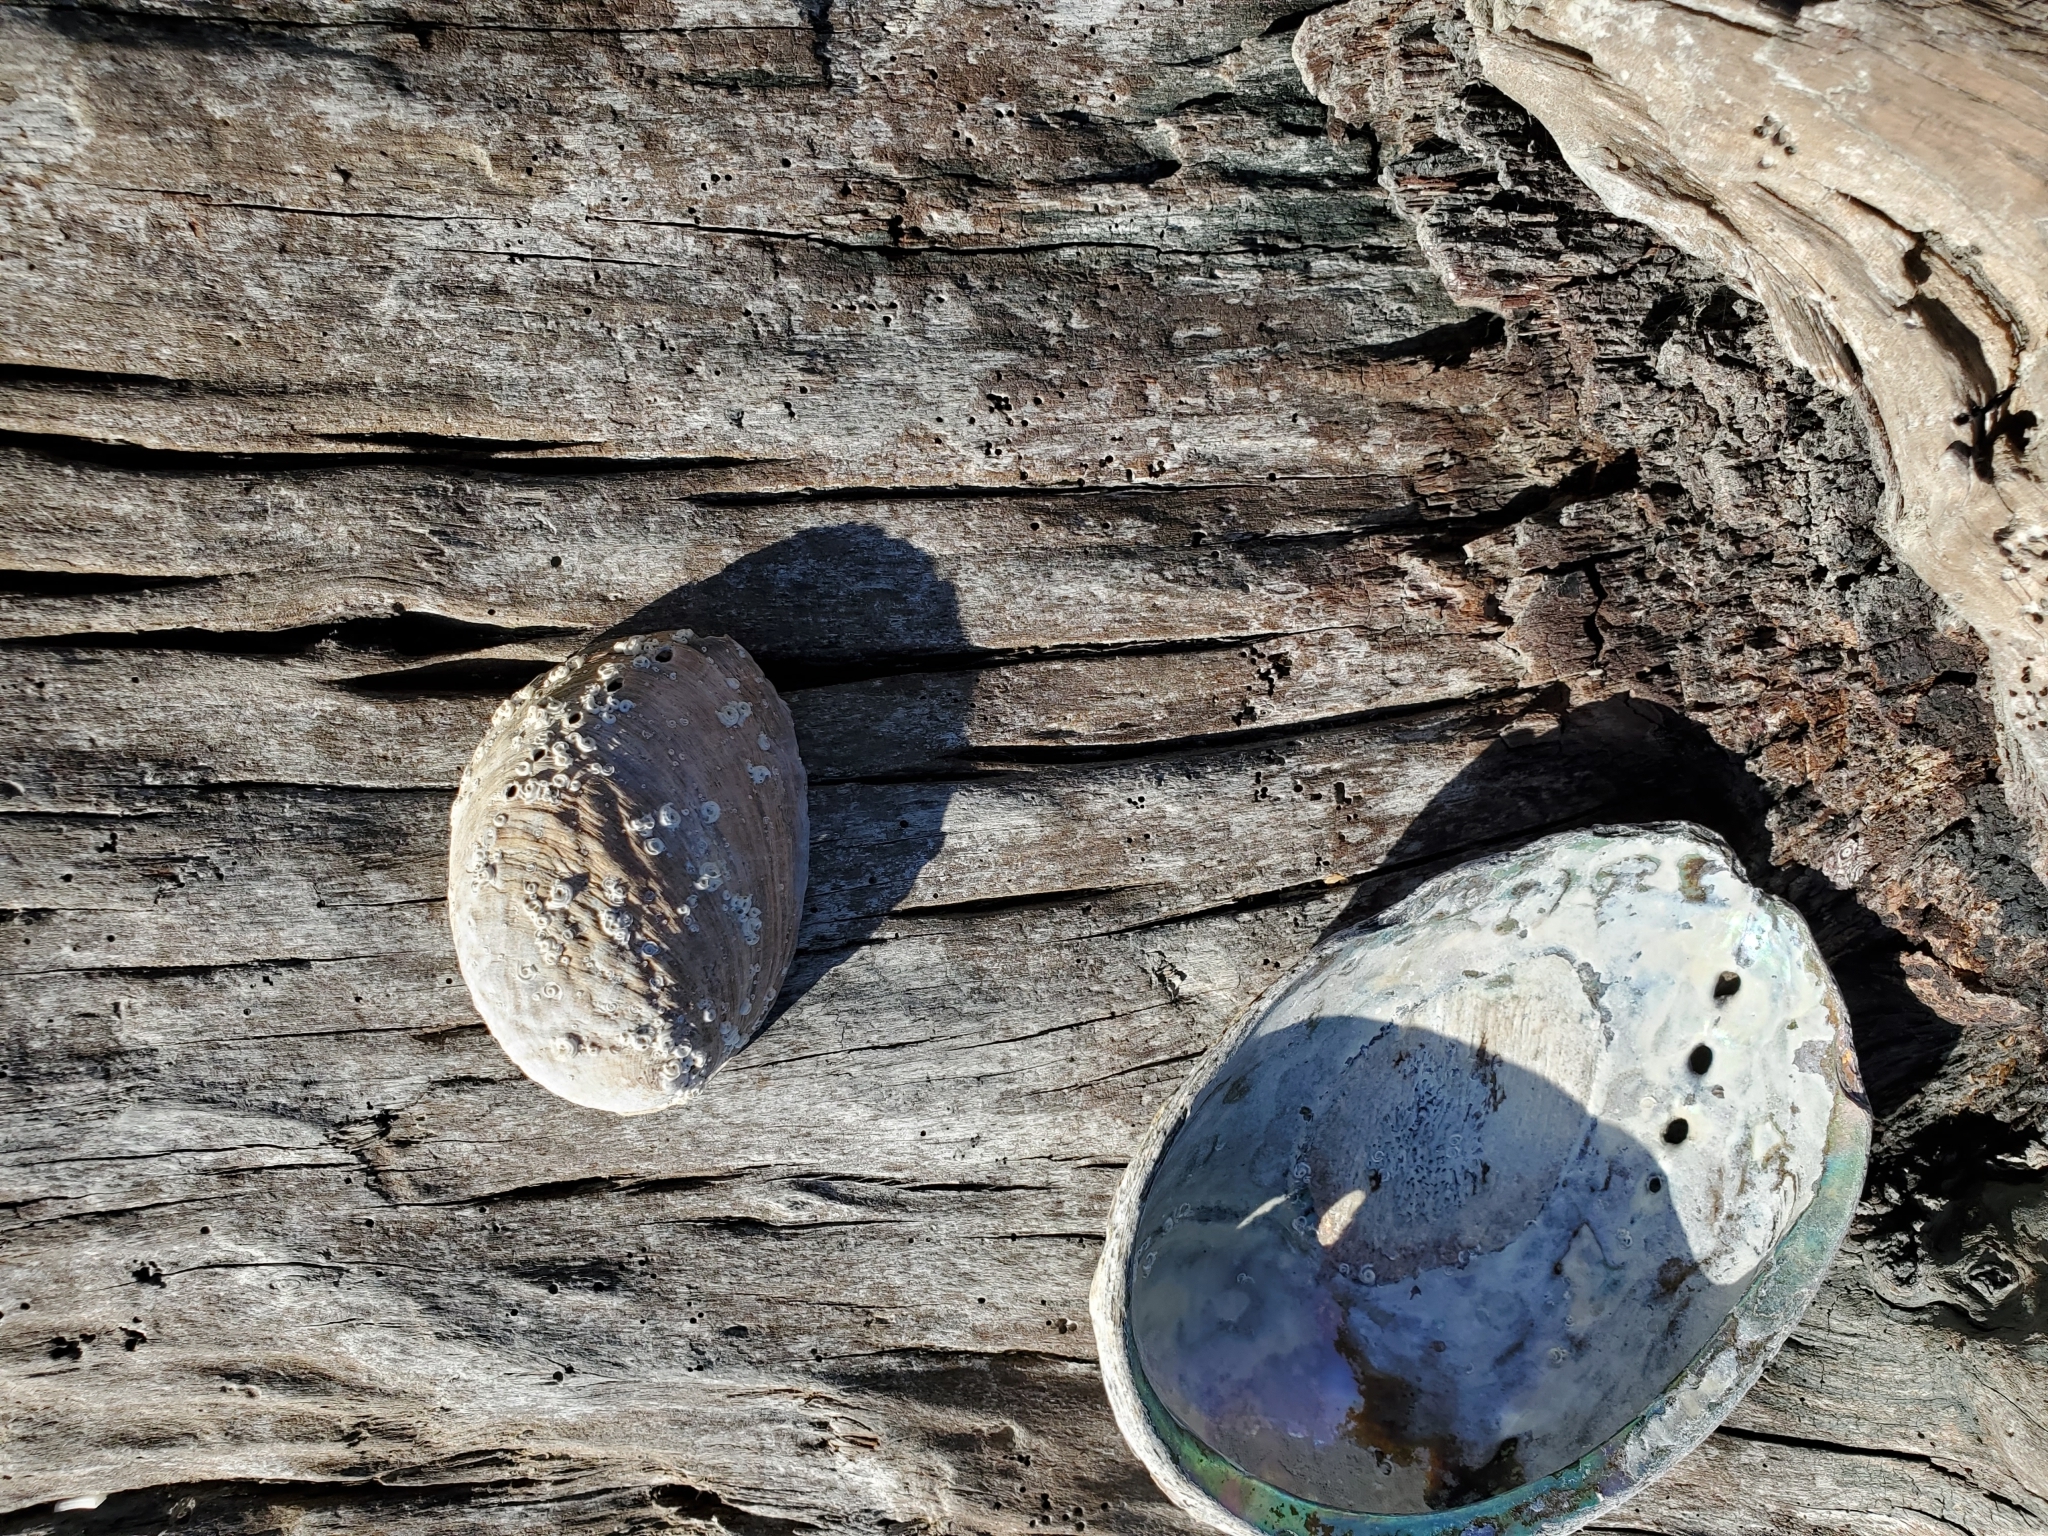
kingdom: Animalia
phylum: Mollusca
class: Gastropoda
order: Lepetellida
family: Haliotidae
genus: Haliotis
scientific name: Haliotis iris
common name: Abalone
